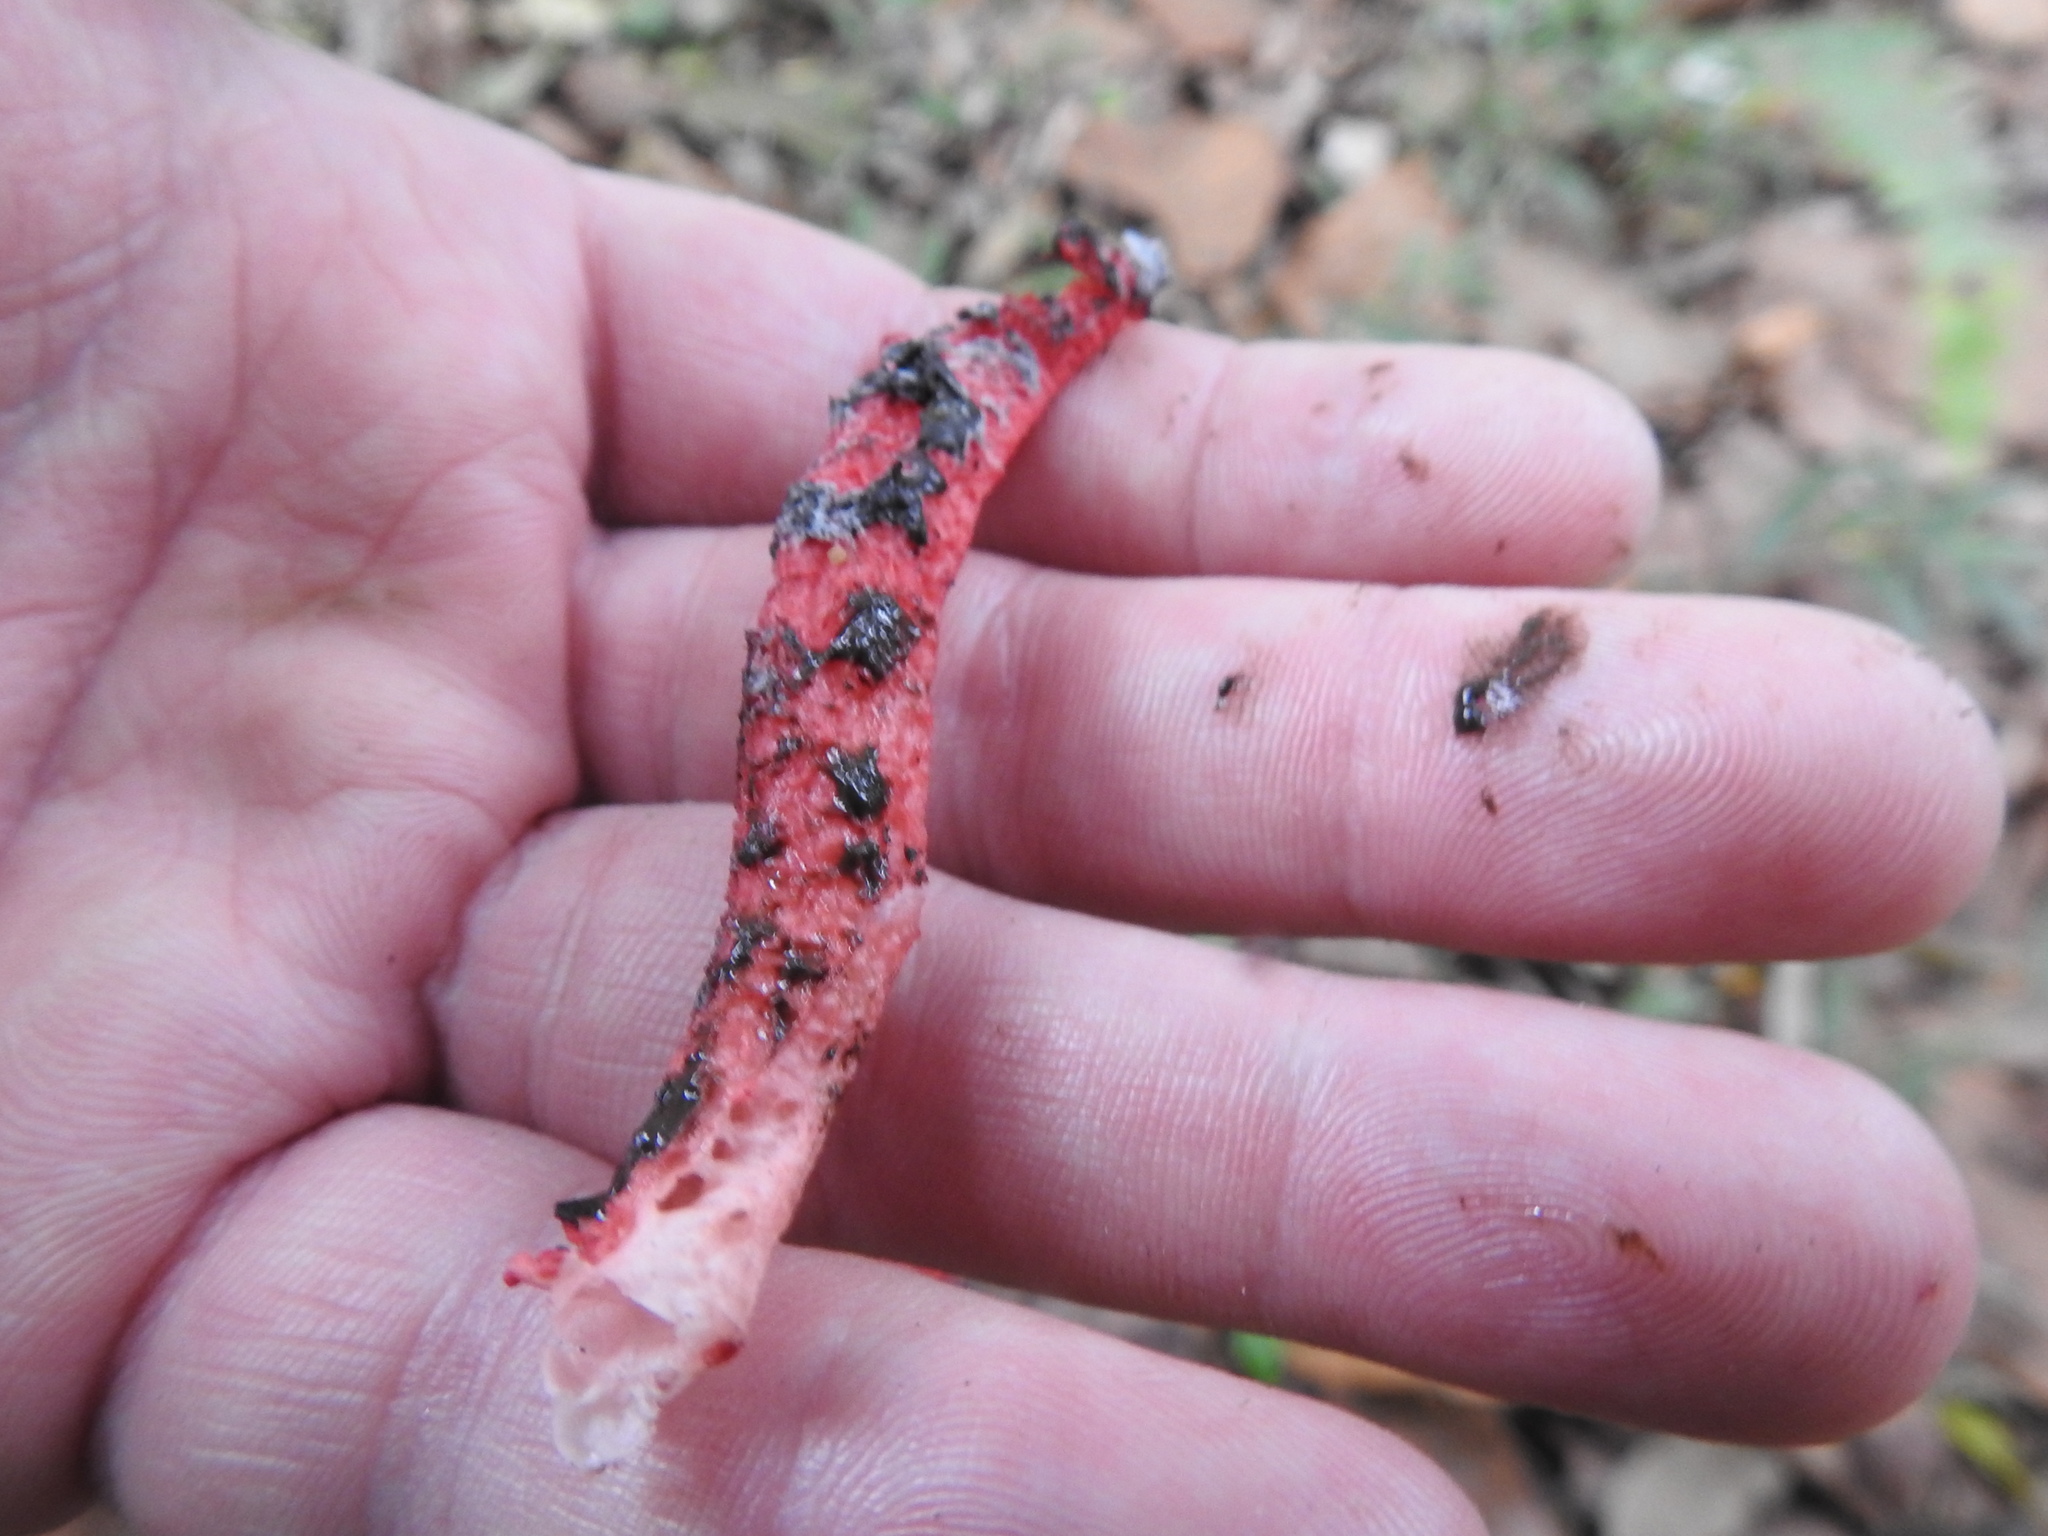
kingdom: Fungi
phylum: Basidiomycota
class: Agaricomycetes
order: Phallales
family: Phallaceae
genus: Clathrus
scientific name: Clathrus archeri
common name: Devil's fingers
